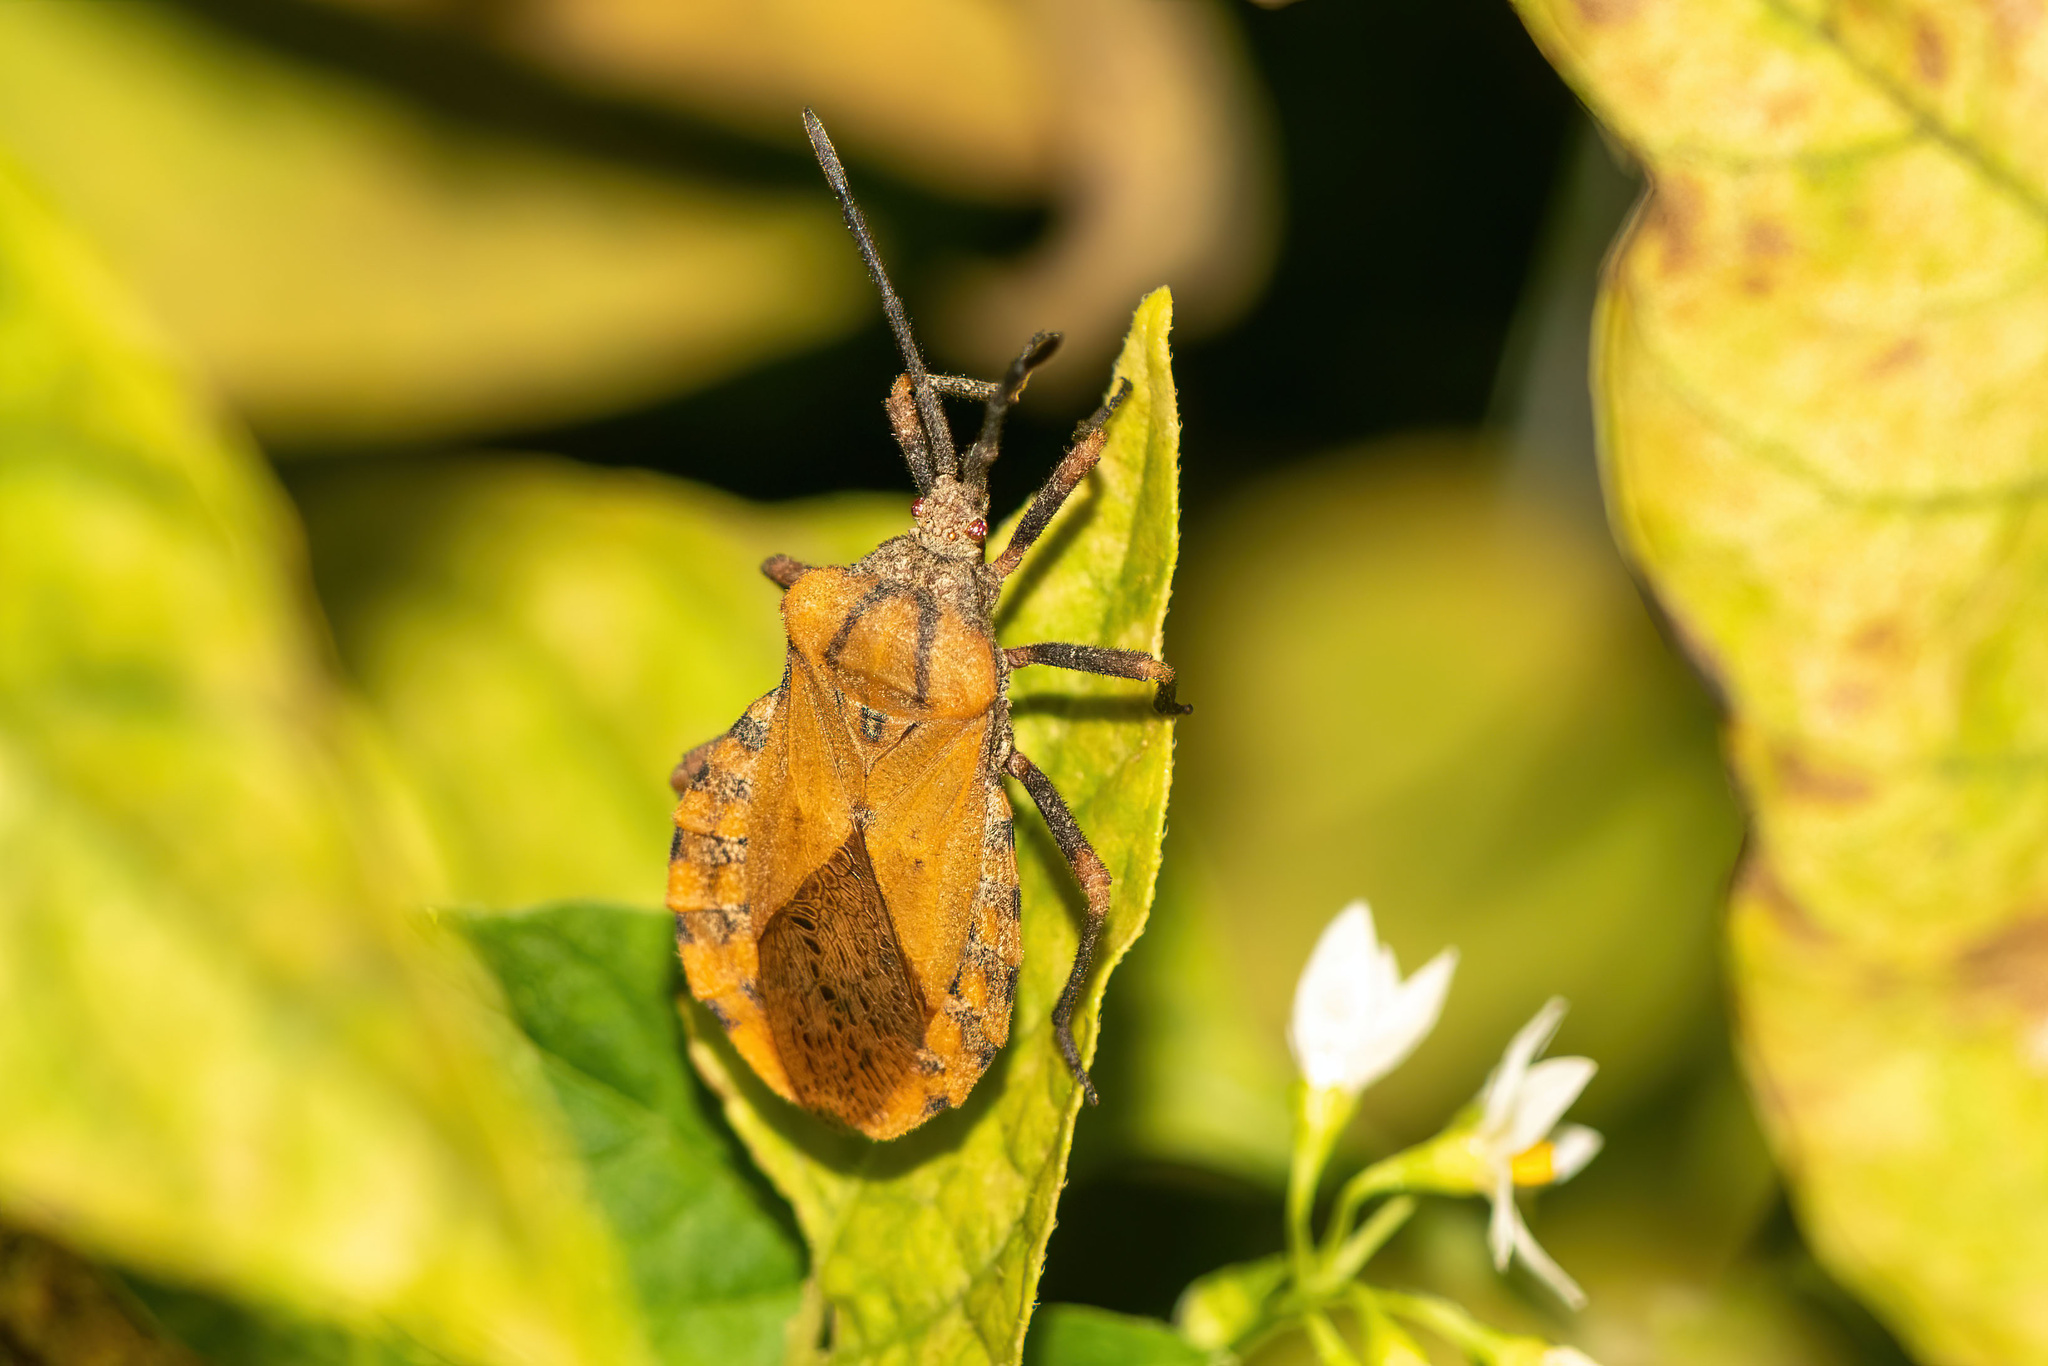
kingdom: Animalia
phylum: Arthropoda
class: Insecta
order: Hemiptera
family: Coreidae
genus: Spartocera
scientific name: Spartocera fusca
